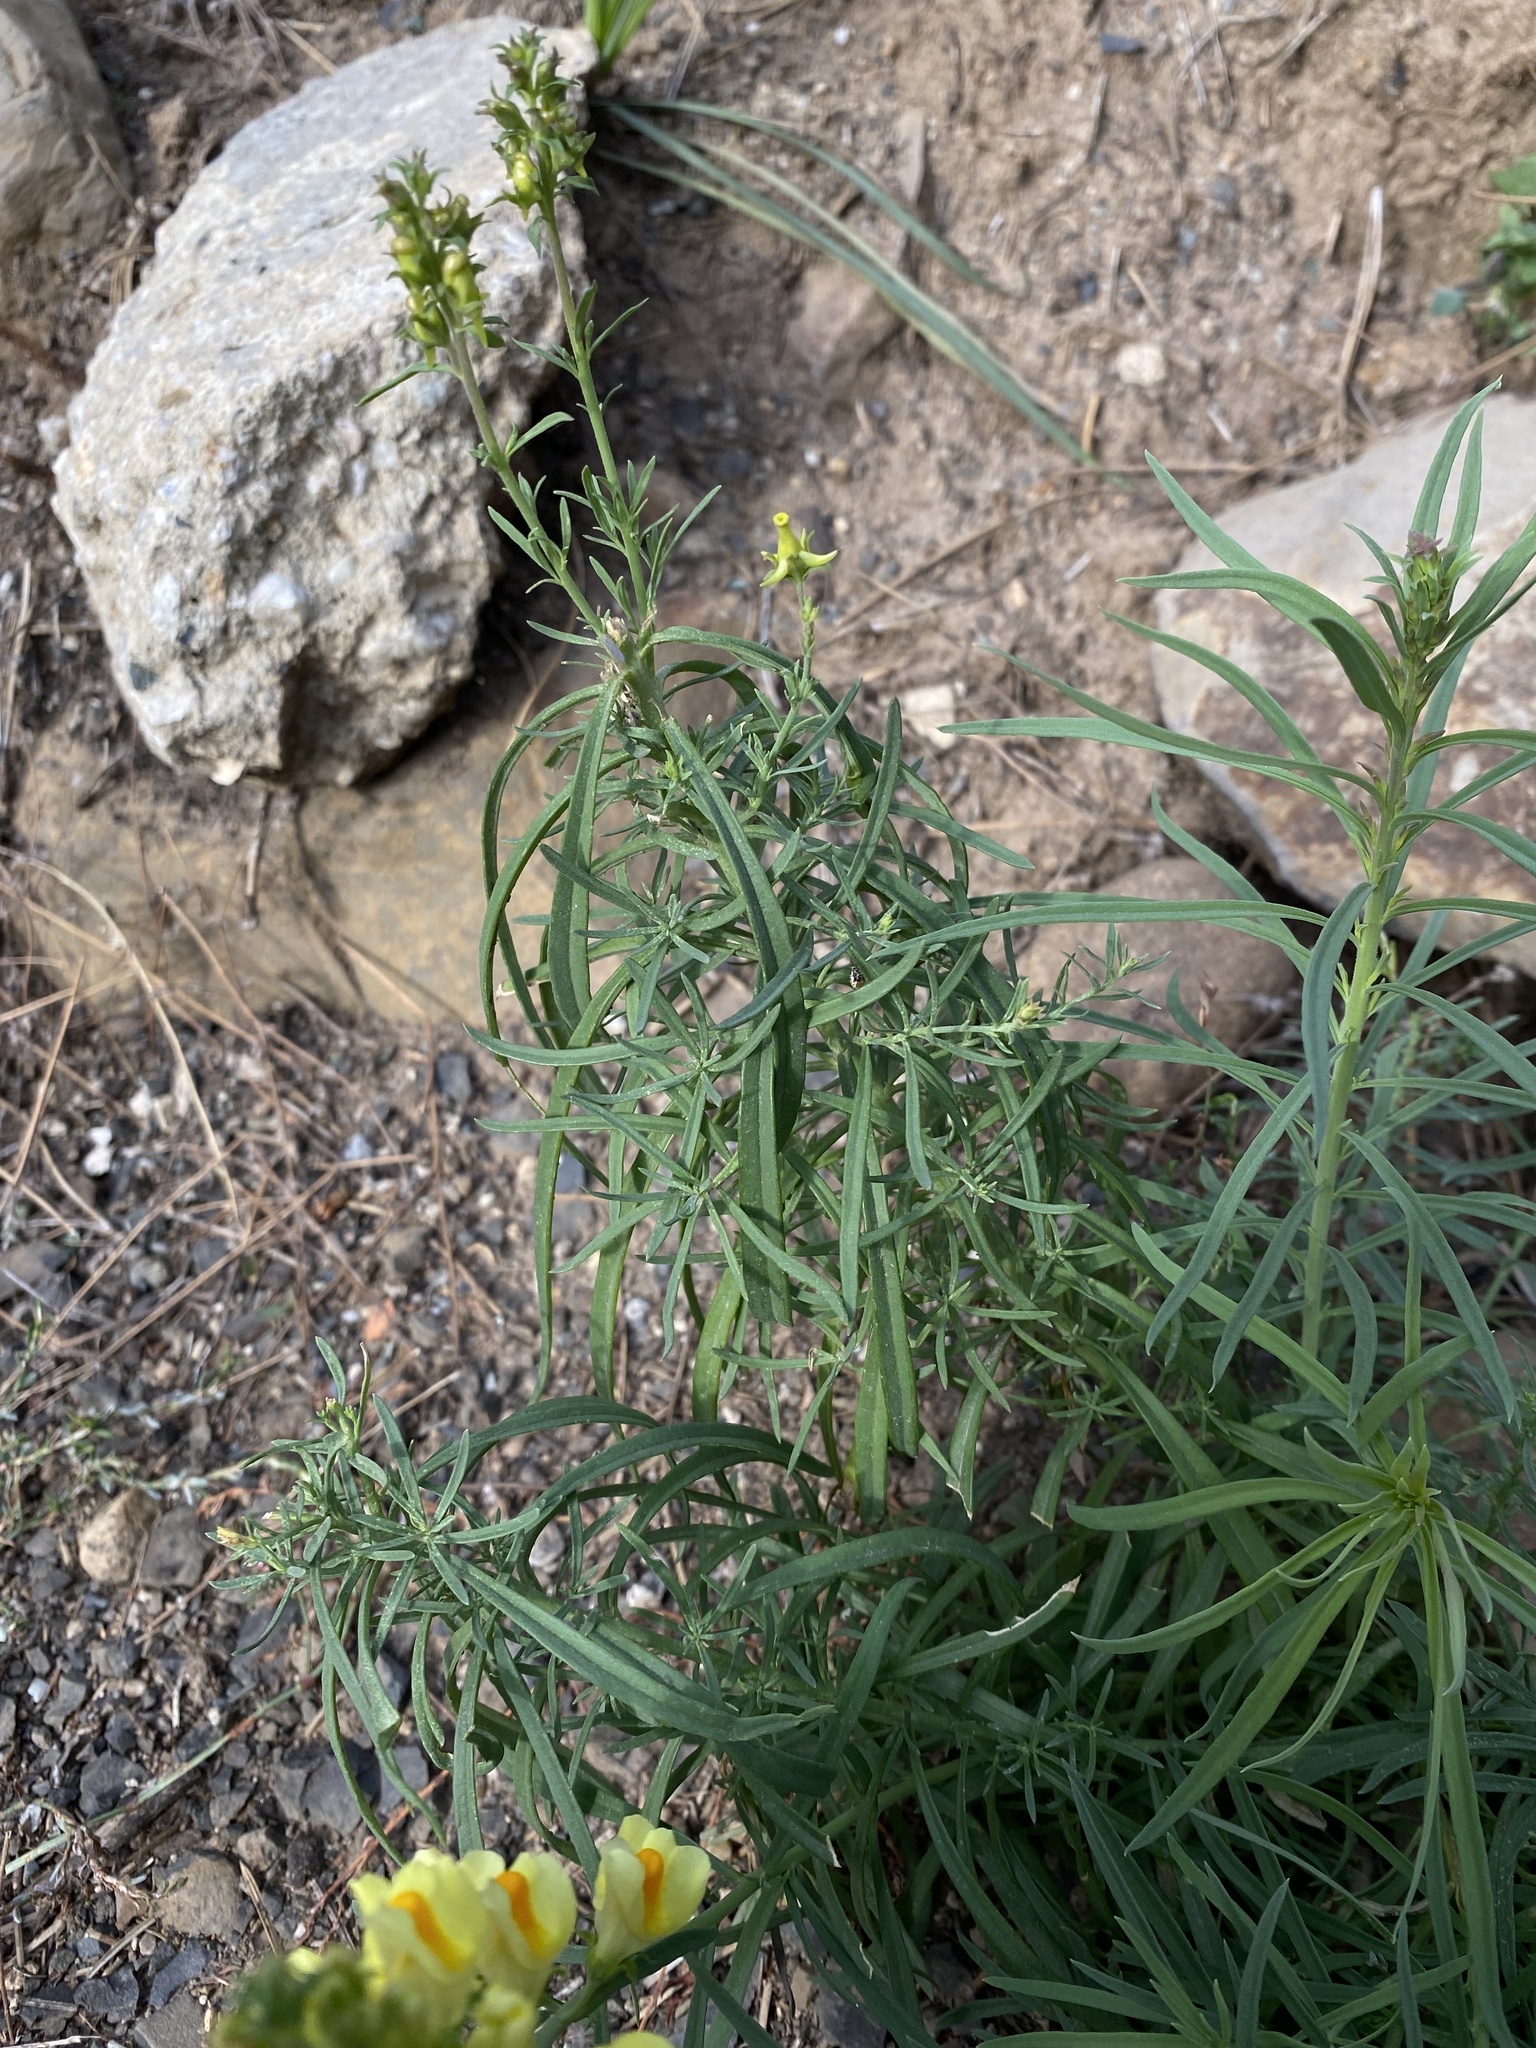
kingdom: Plantae
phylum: Tracheophyta
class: Magnoliopsida
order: Lamiales
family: Plantaginaceae
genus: Linaria
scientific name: Linaria vulgaris
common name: Butter and eggs
